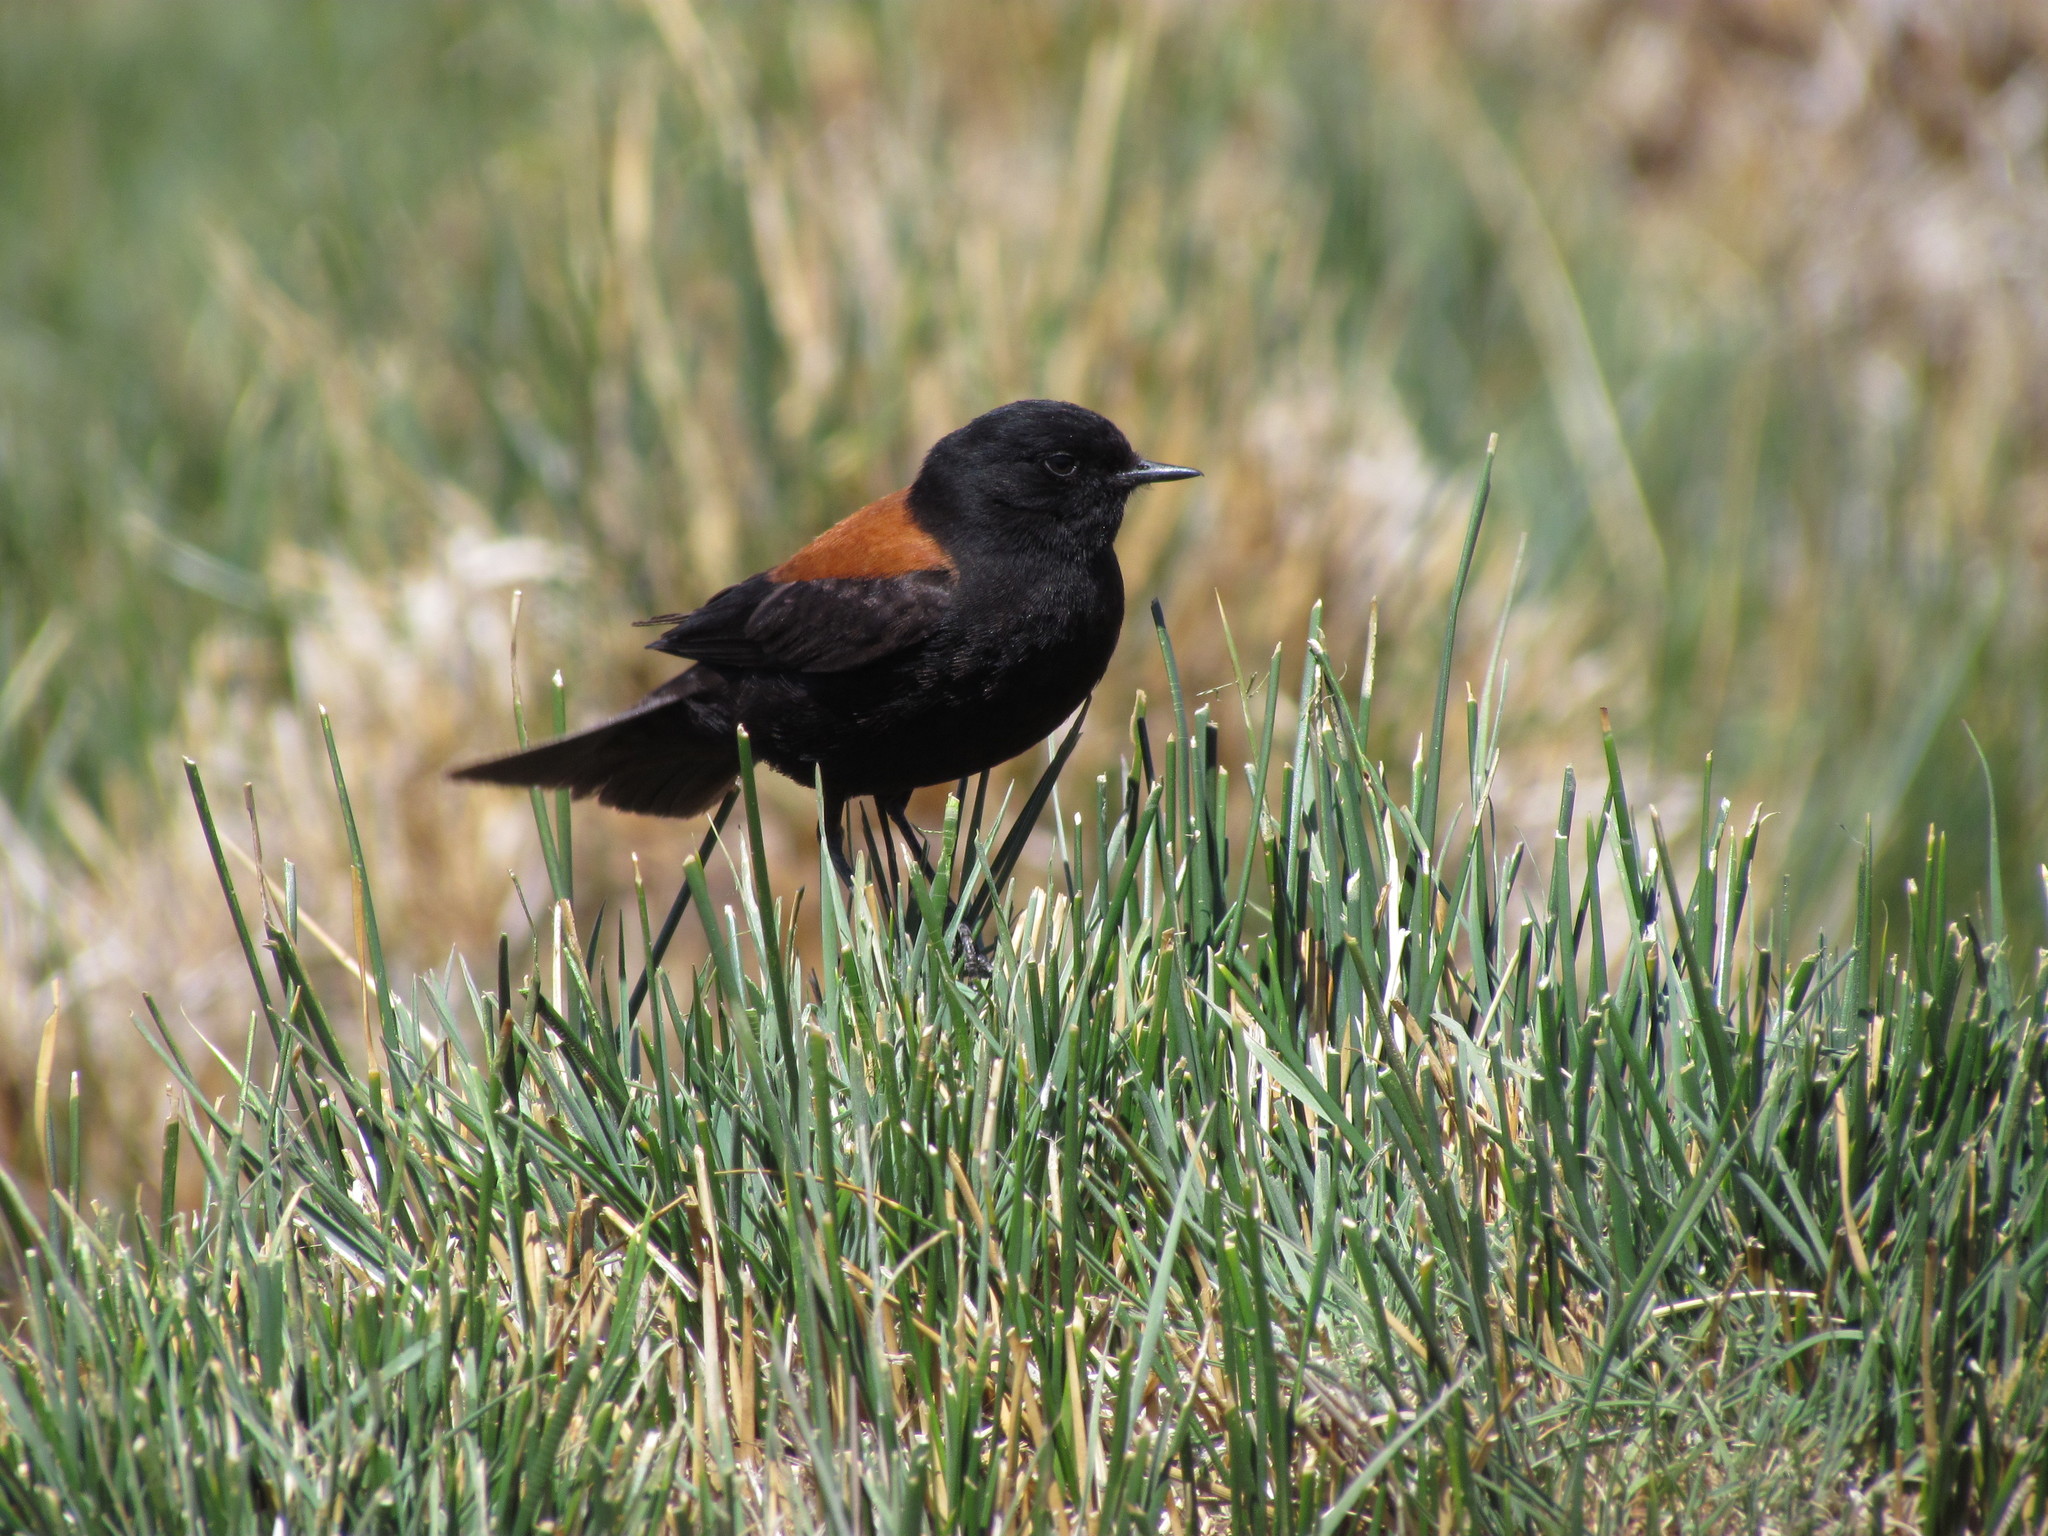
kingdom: Animalia
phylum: Chordata
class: Aves
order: Passeriformes
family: Tyrannidae
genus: Lessonia
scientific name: Lessonia rufa
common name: Austral negrito
